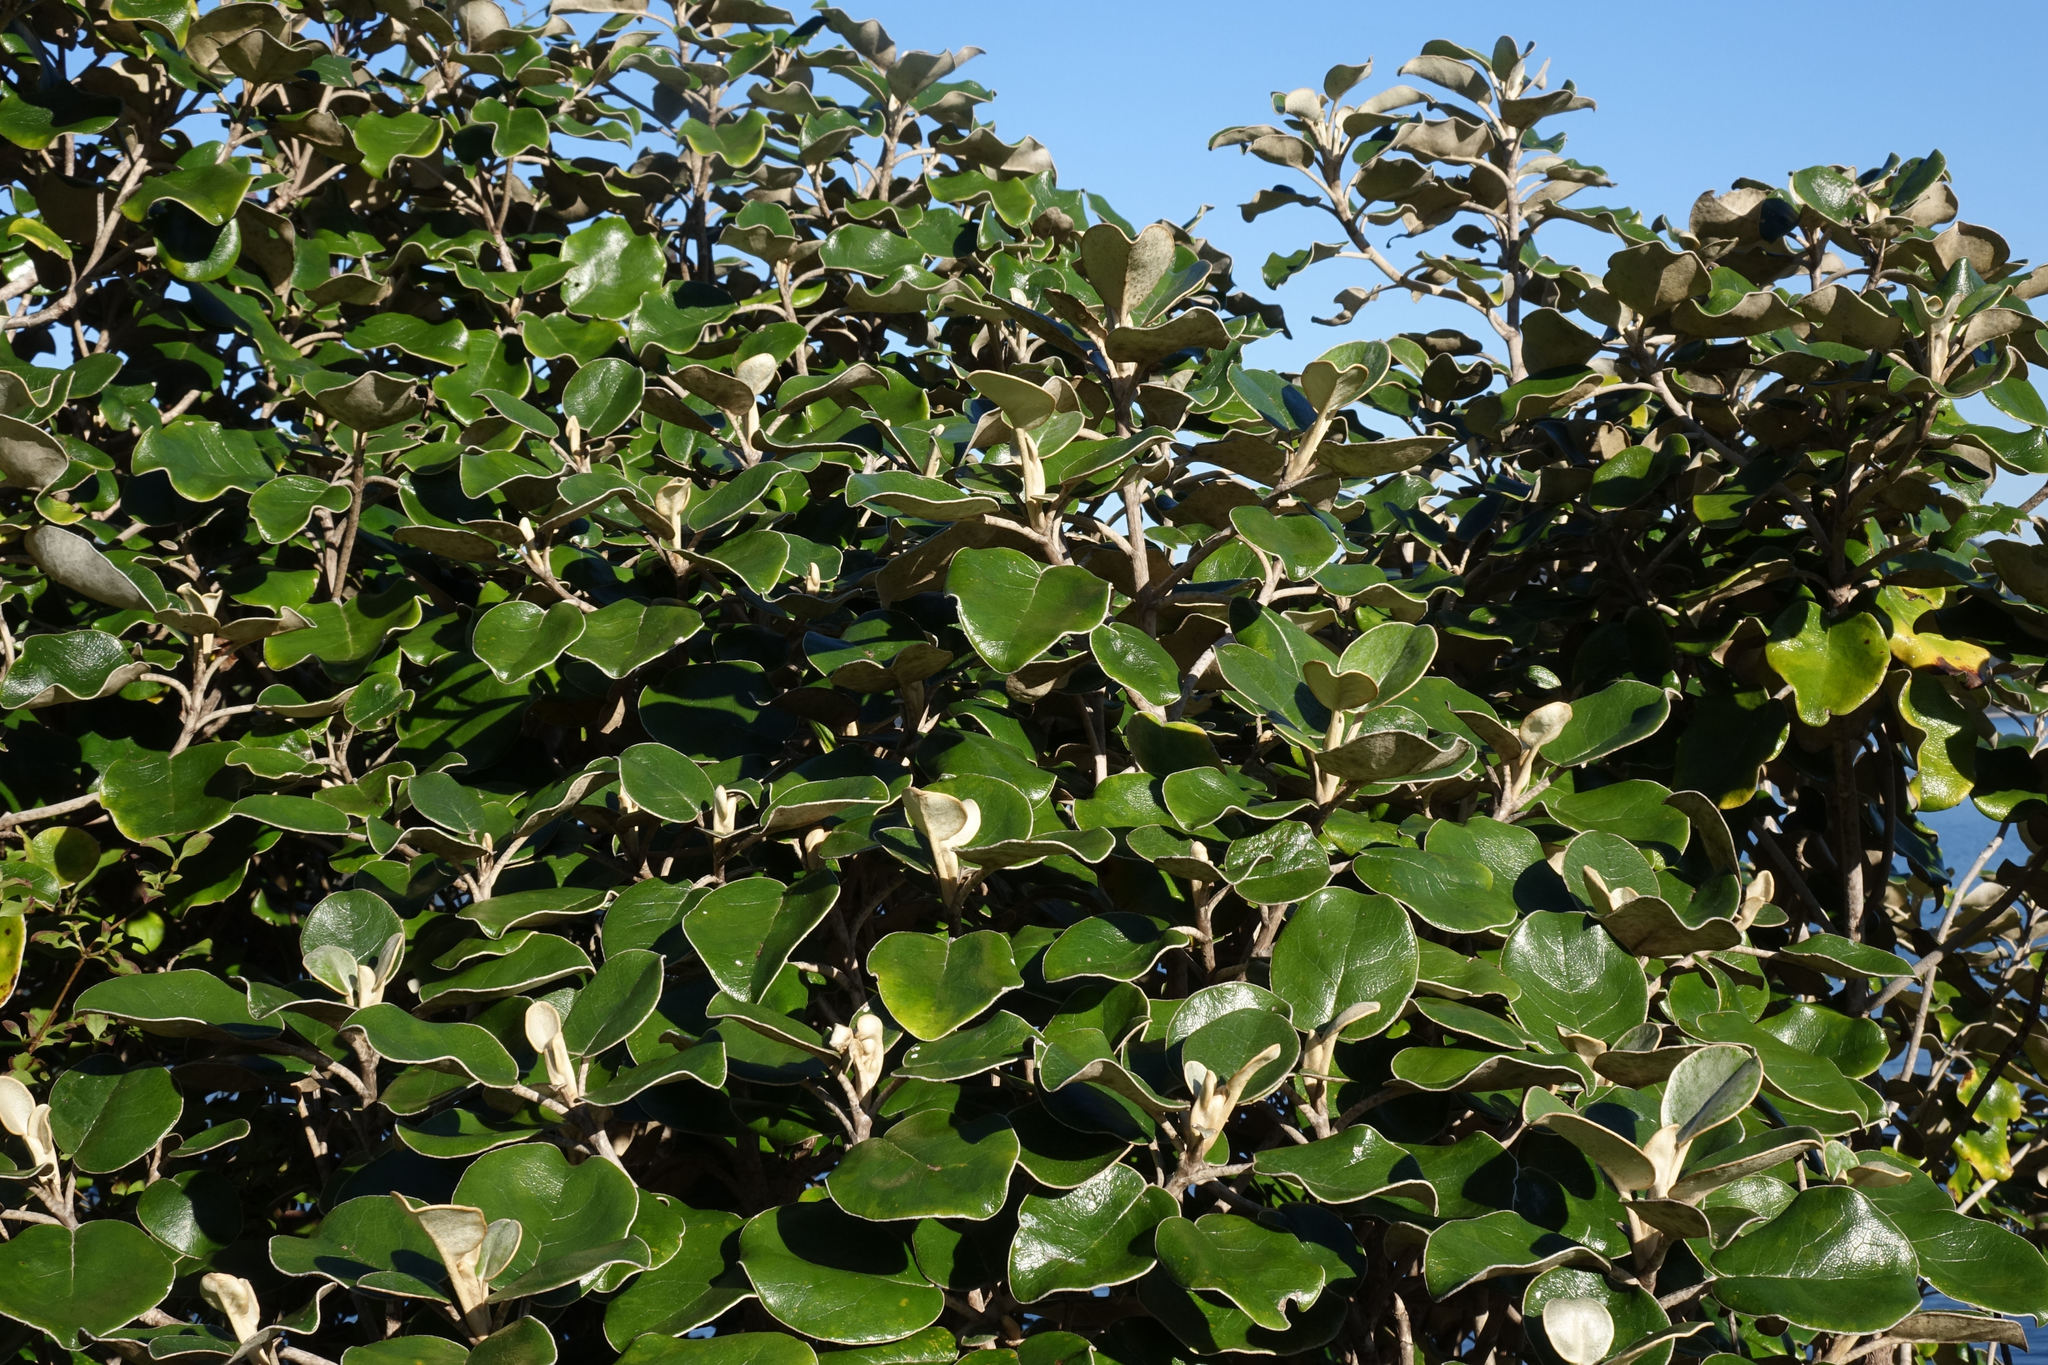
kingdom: Plantae
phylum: Tracheophyta
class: Magnoliopsida
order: Asterales
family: Asteraceae
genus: Brachyglottis
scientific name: Brachyglottis rotundifolia
